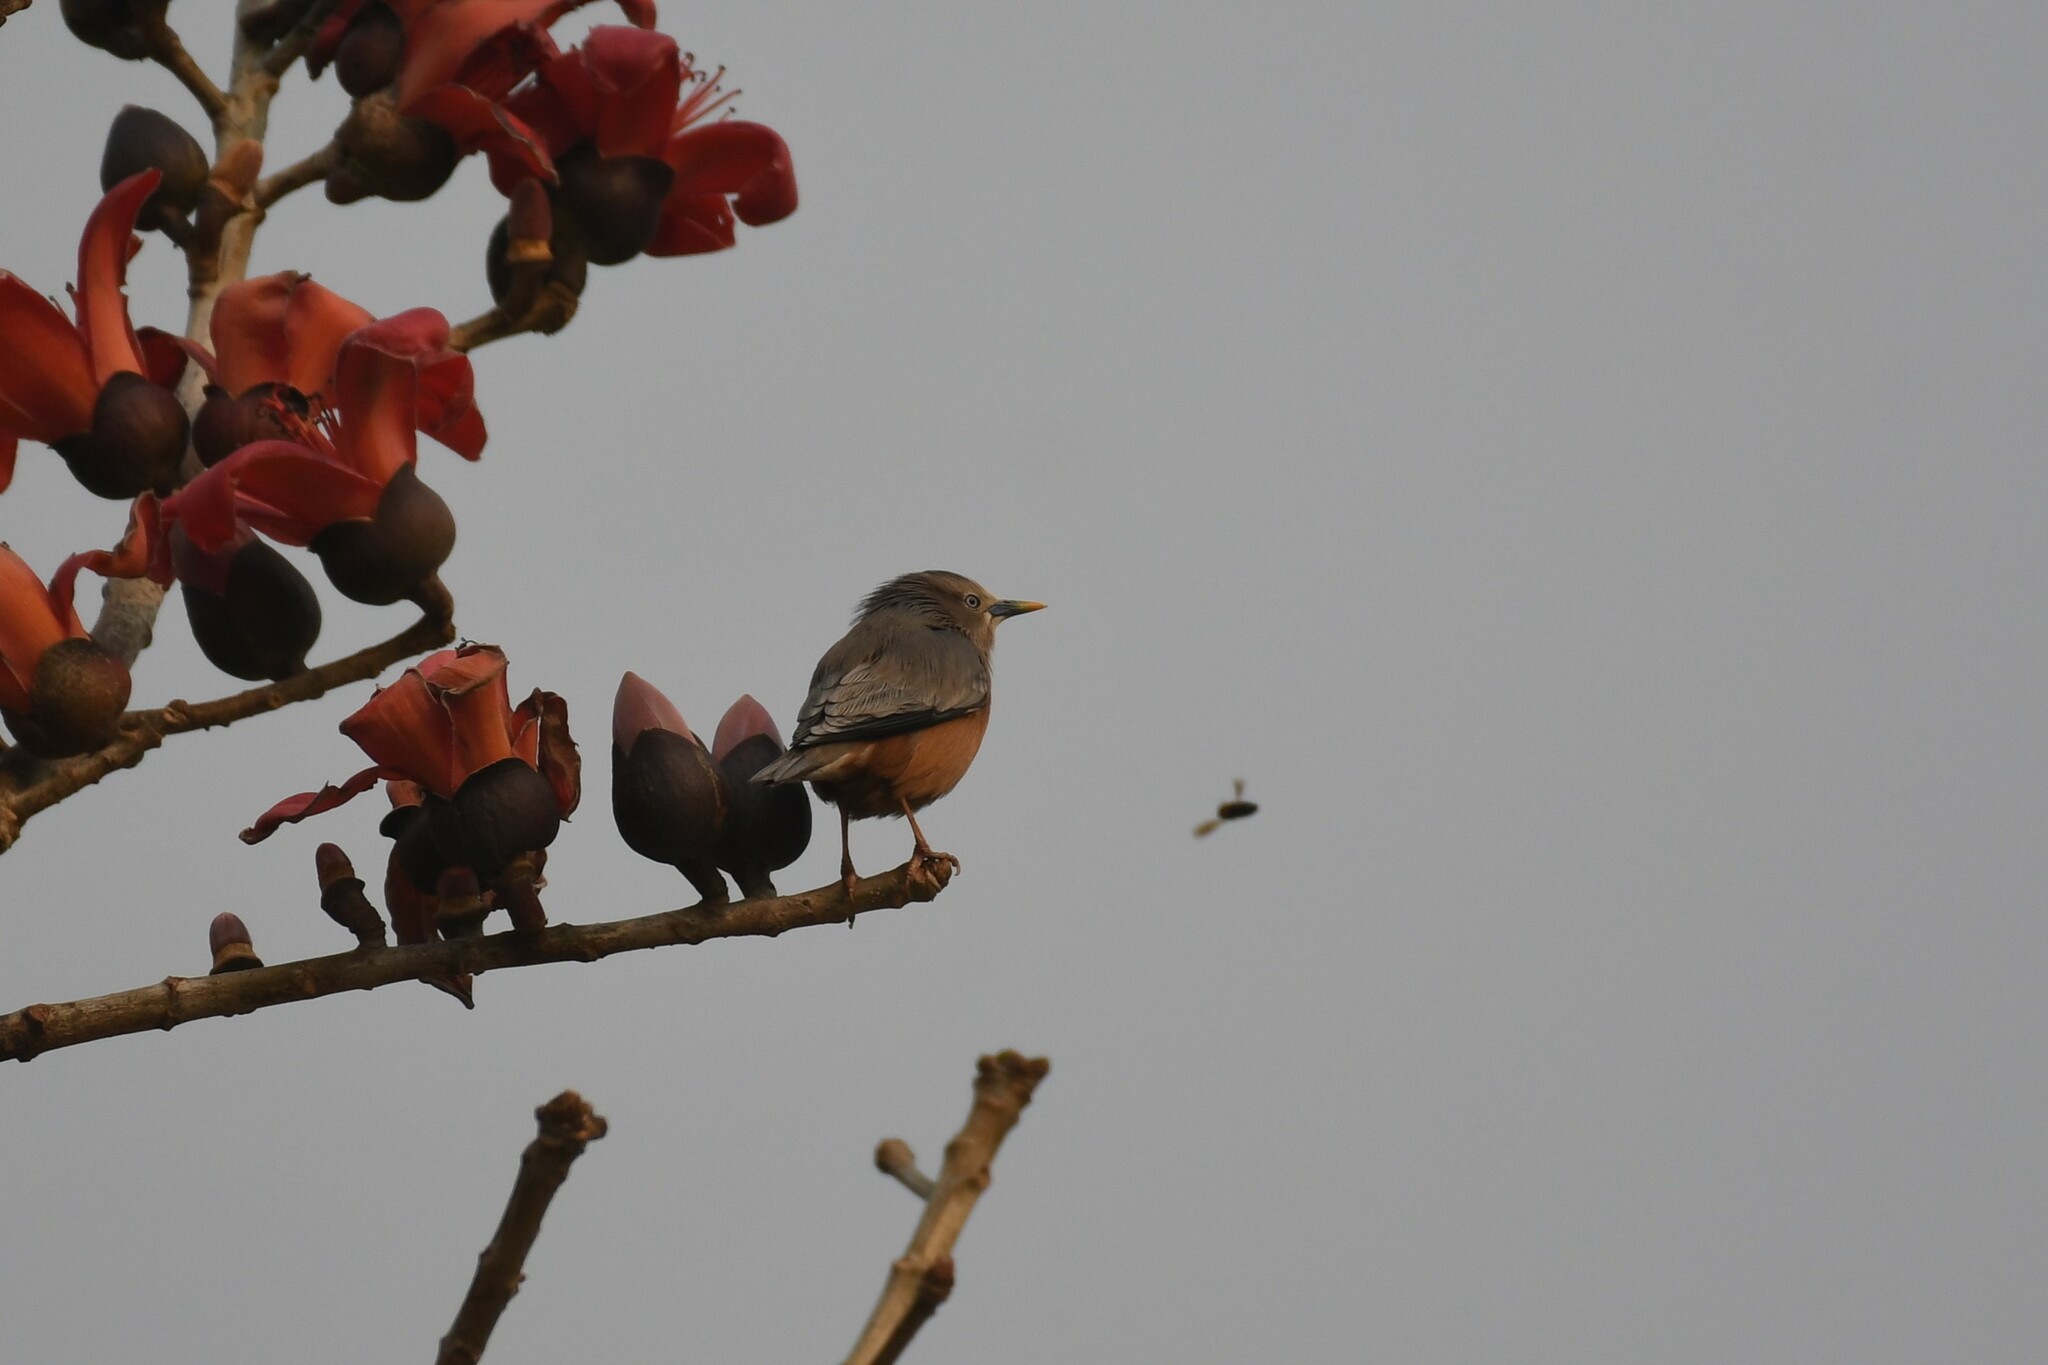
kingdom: Animalia
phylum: Chordata
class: Aves
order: Passeriformes
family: Sturnidae
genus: Sturnia
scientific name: Sturnia malabarica
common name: Chestnut-tailed starling
